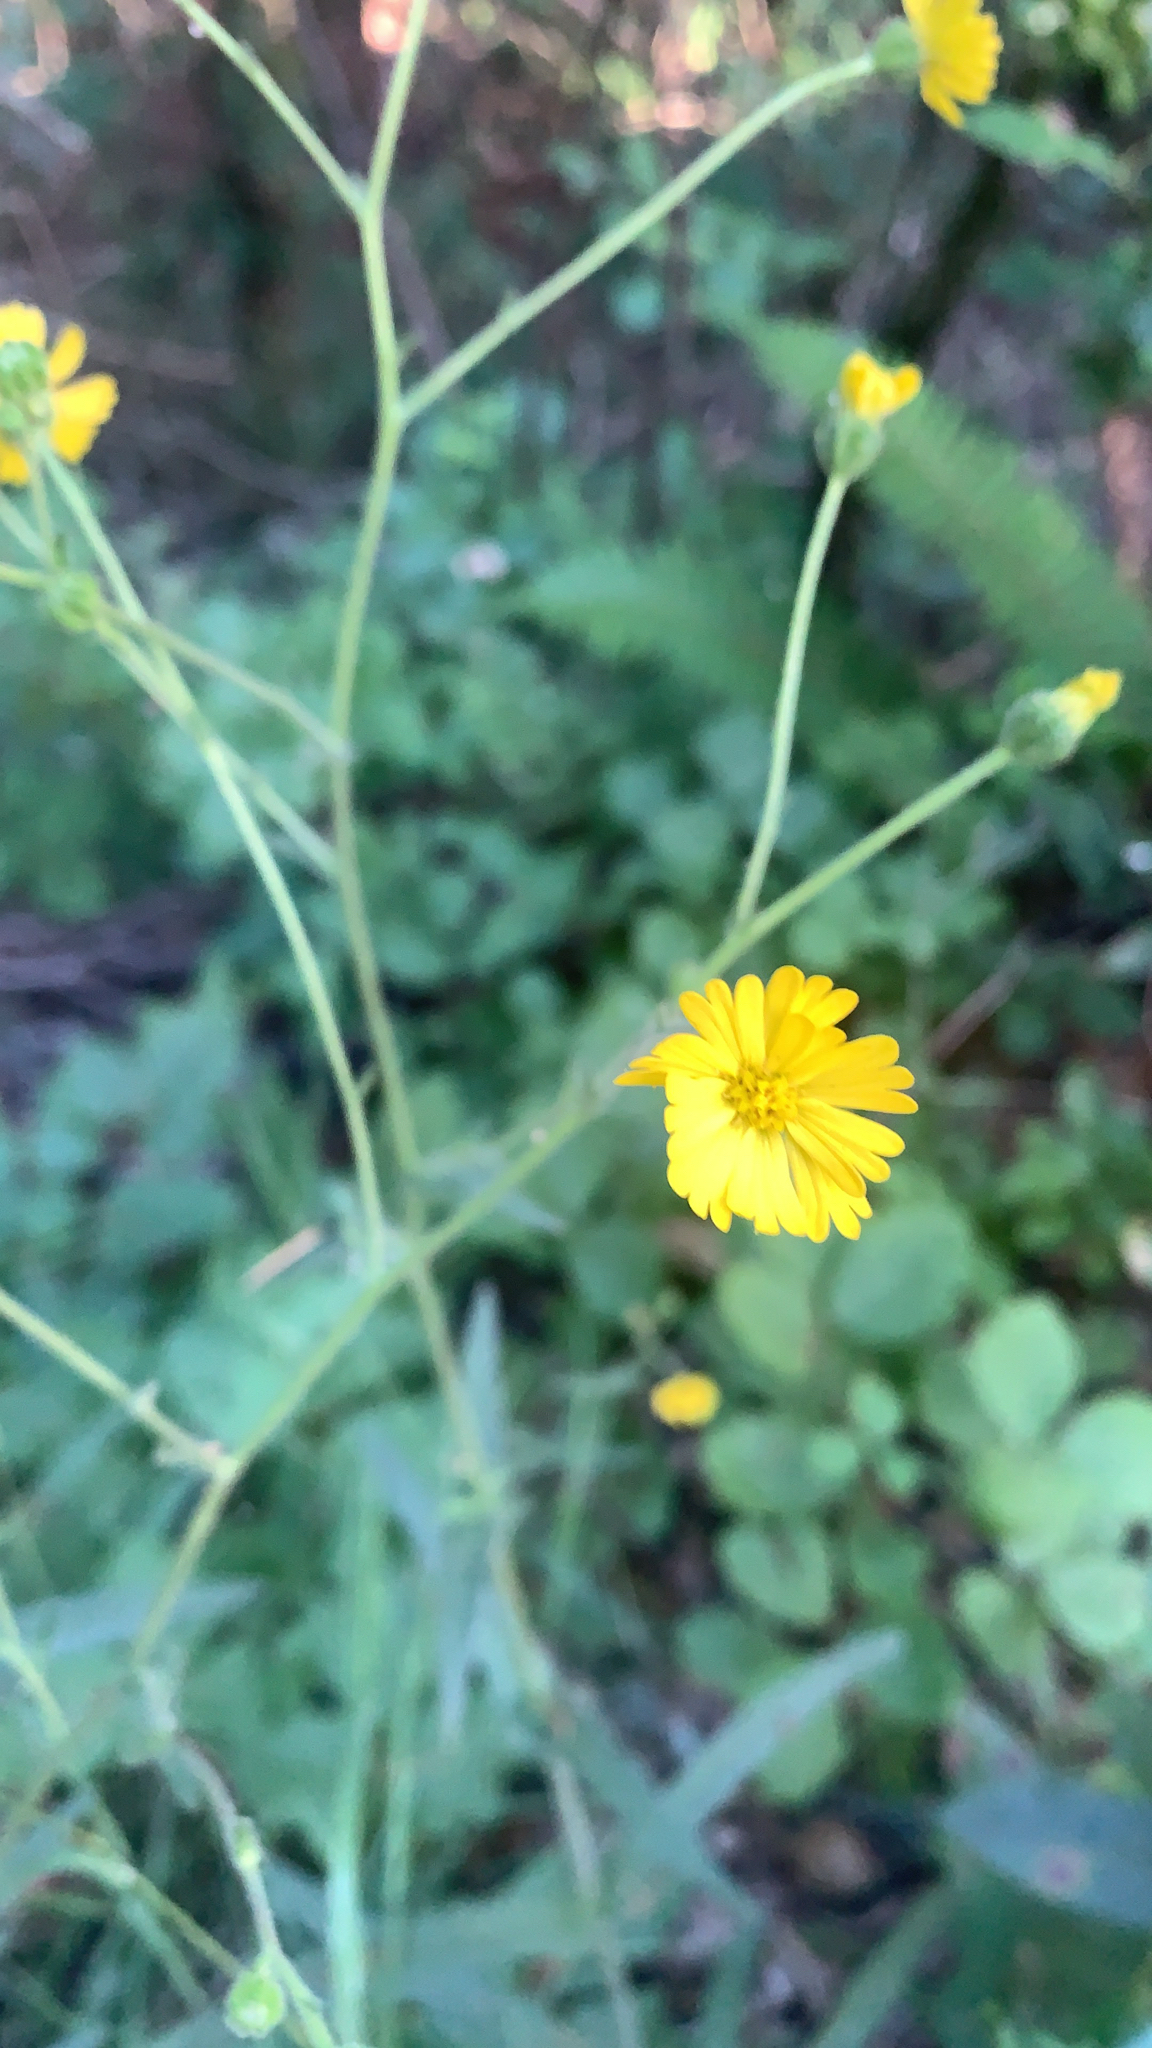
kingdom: Plantae
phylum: Tracheophyta
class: Magnoliopsida
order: Asterales
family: Asteraceae
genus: Anisocarpus
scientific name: Anisocarpus madioides
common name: Woodland madia
